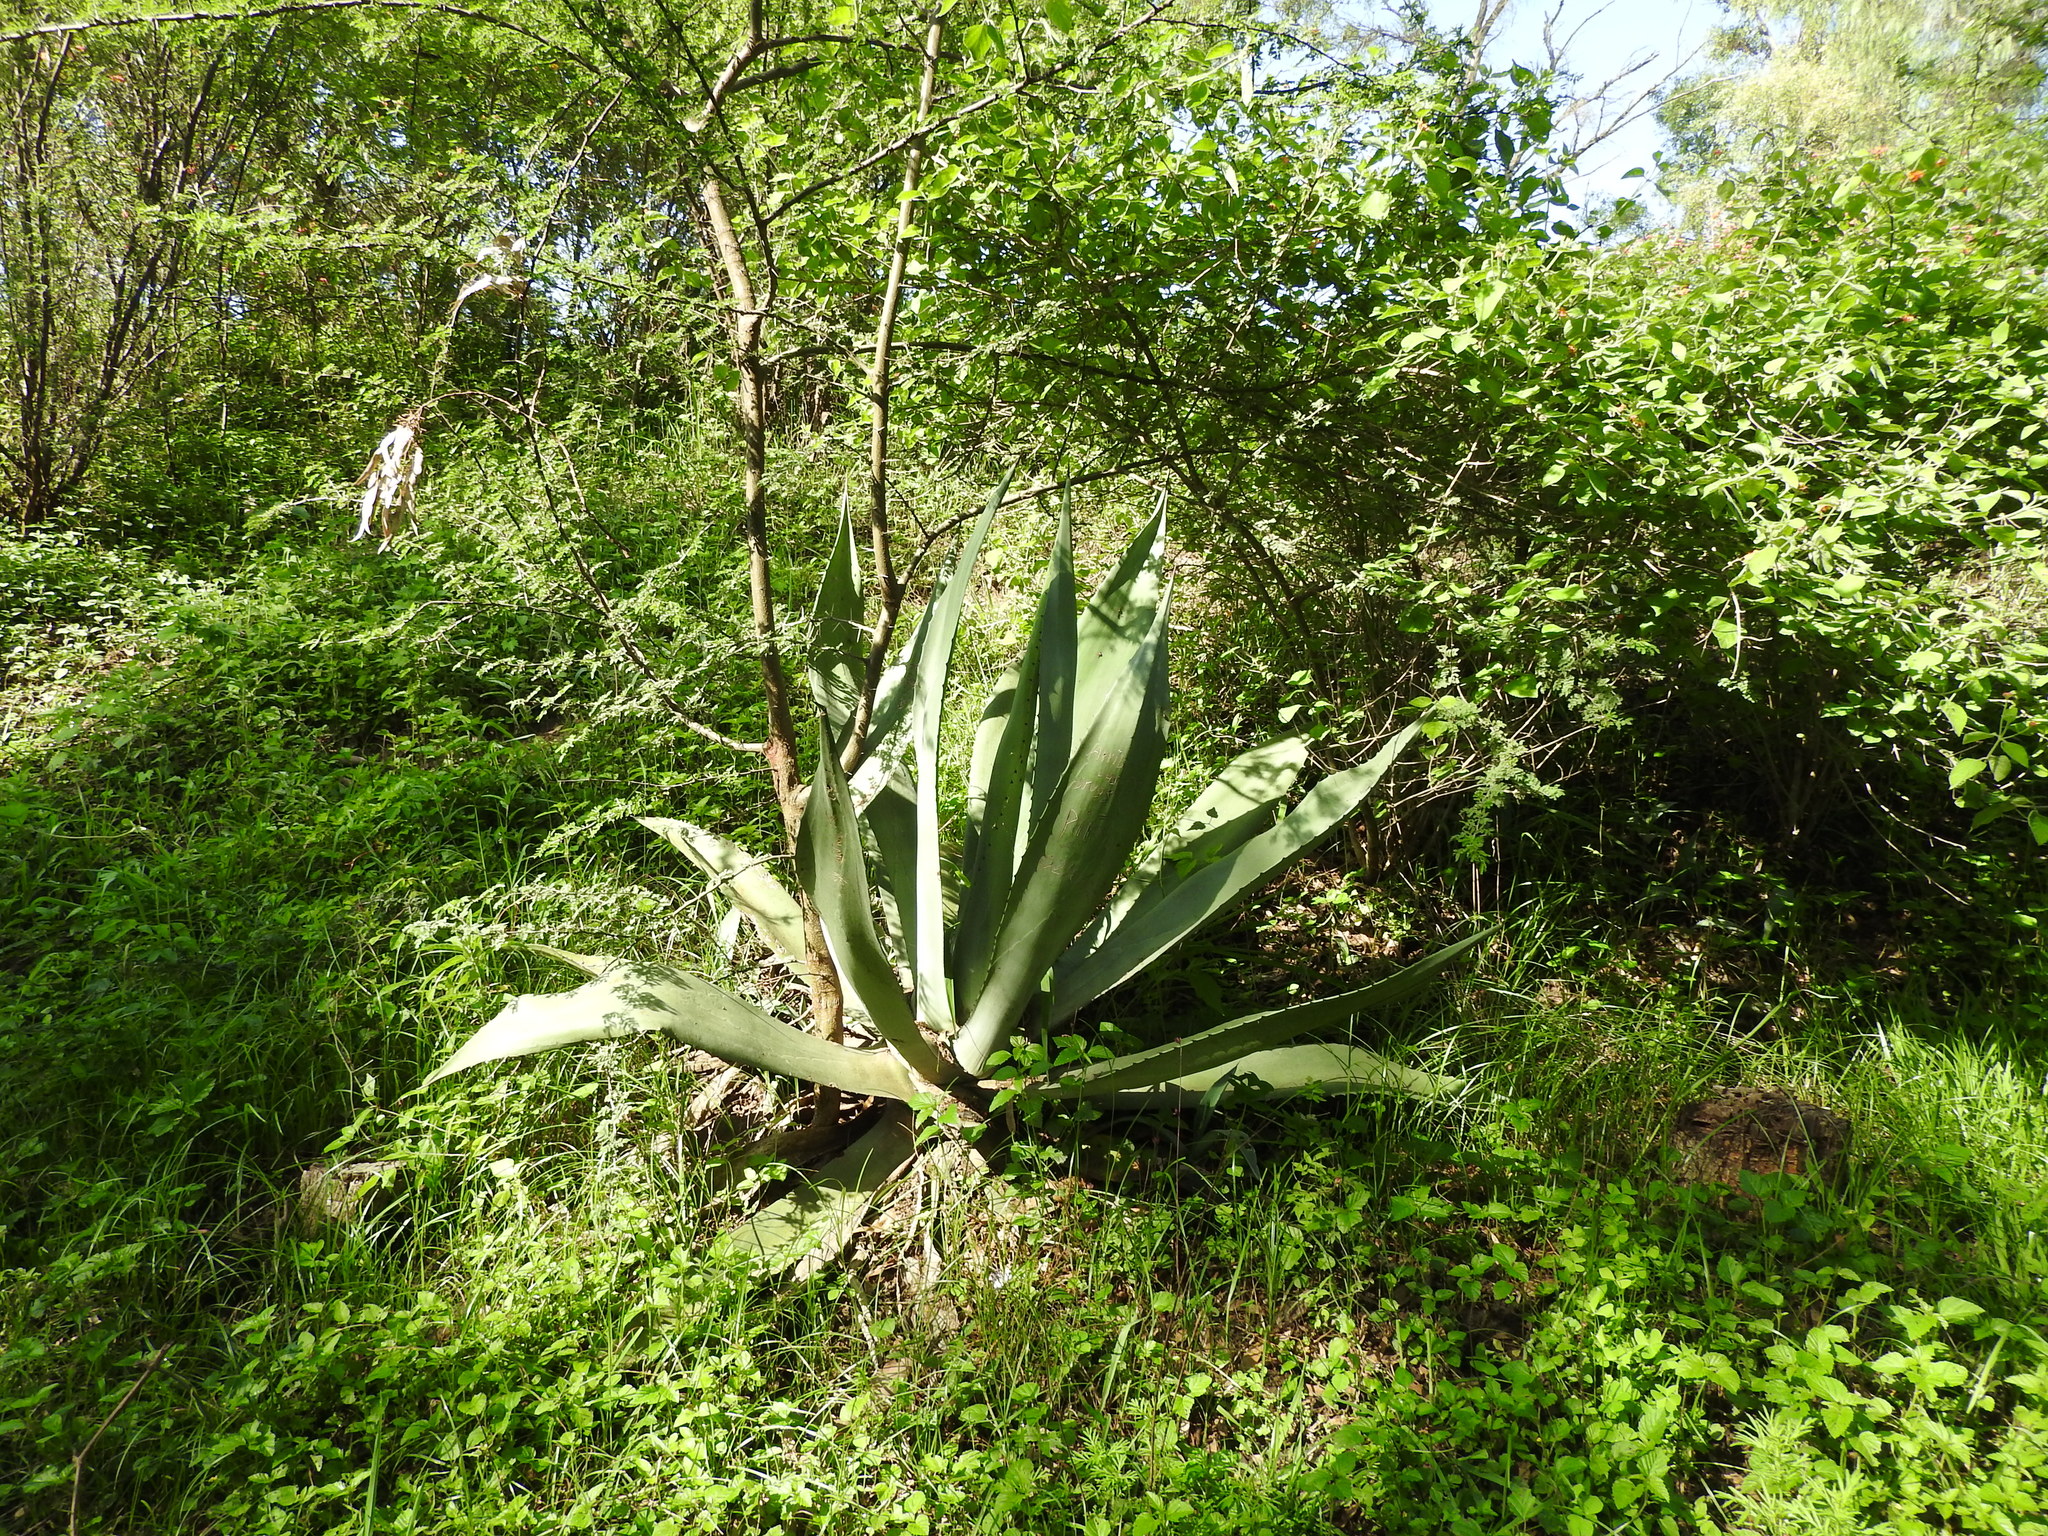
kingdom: Plantae
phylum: Tracheophyta
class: Liliopsida
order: Asparagales
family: Asparagaceae
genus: Agave
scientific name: Agave americana
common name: Centuryplant
